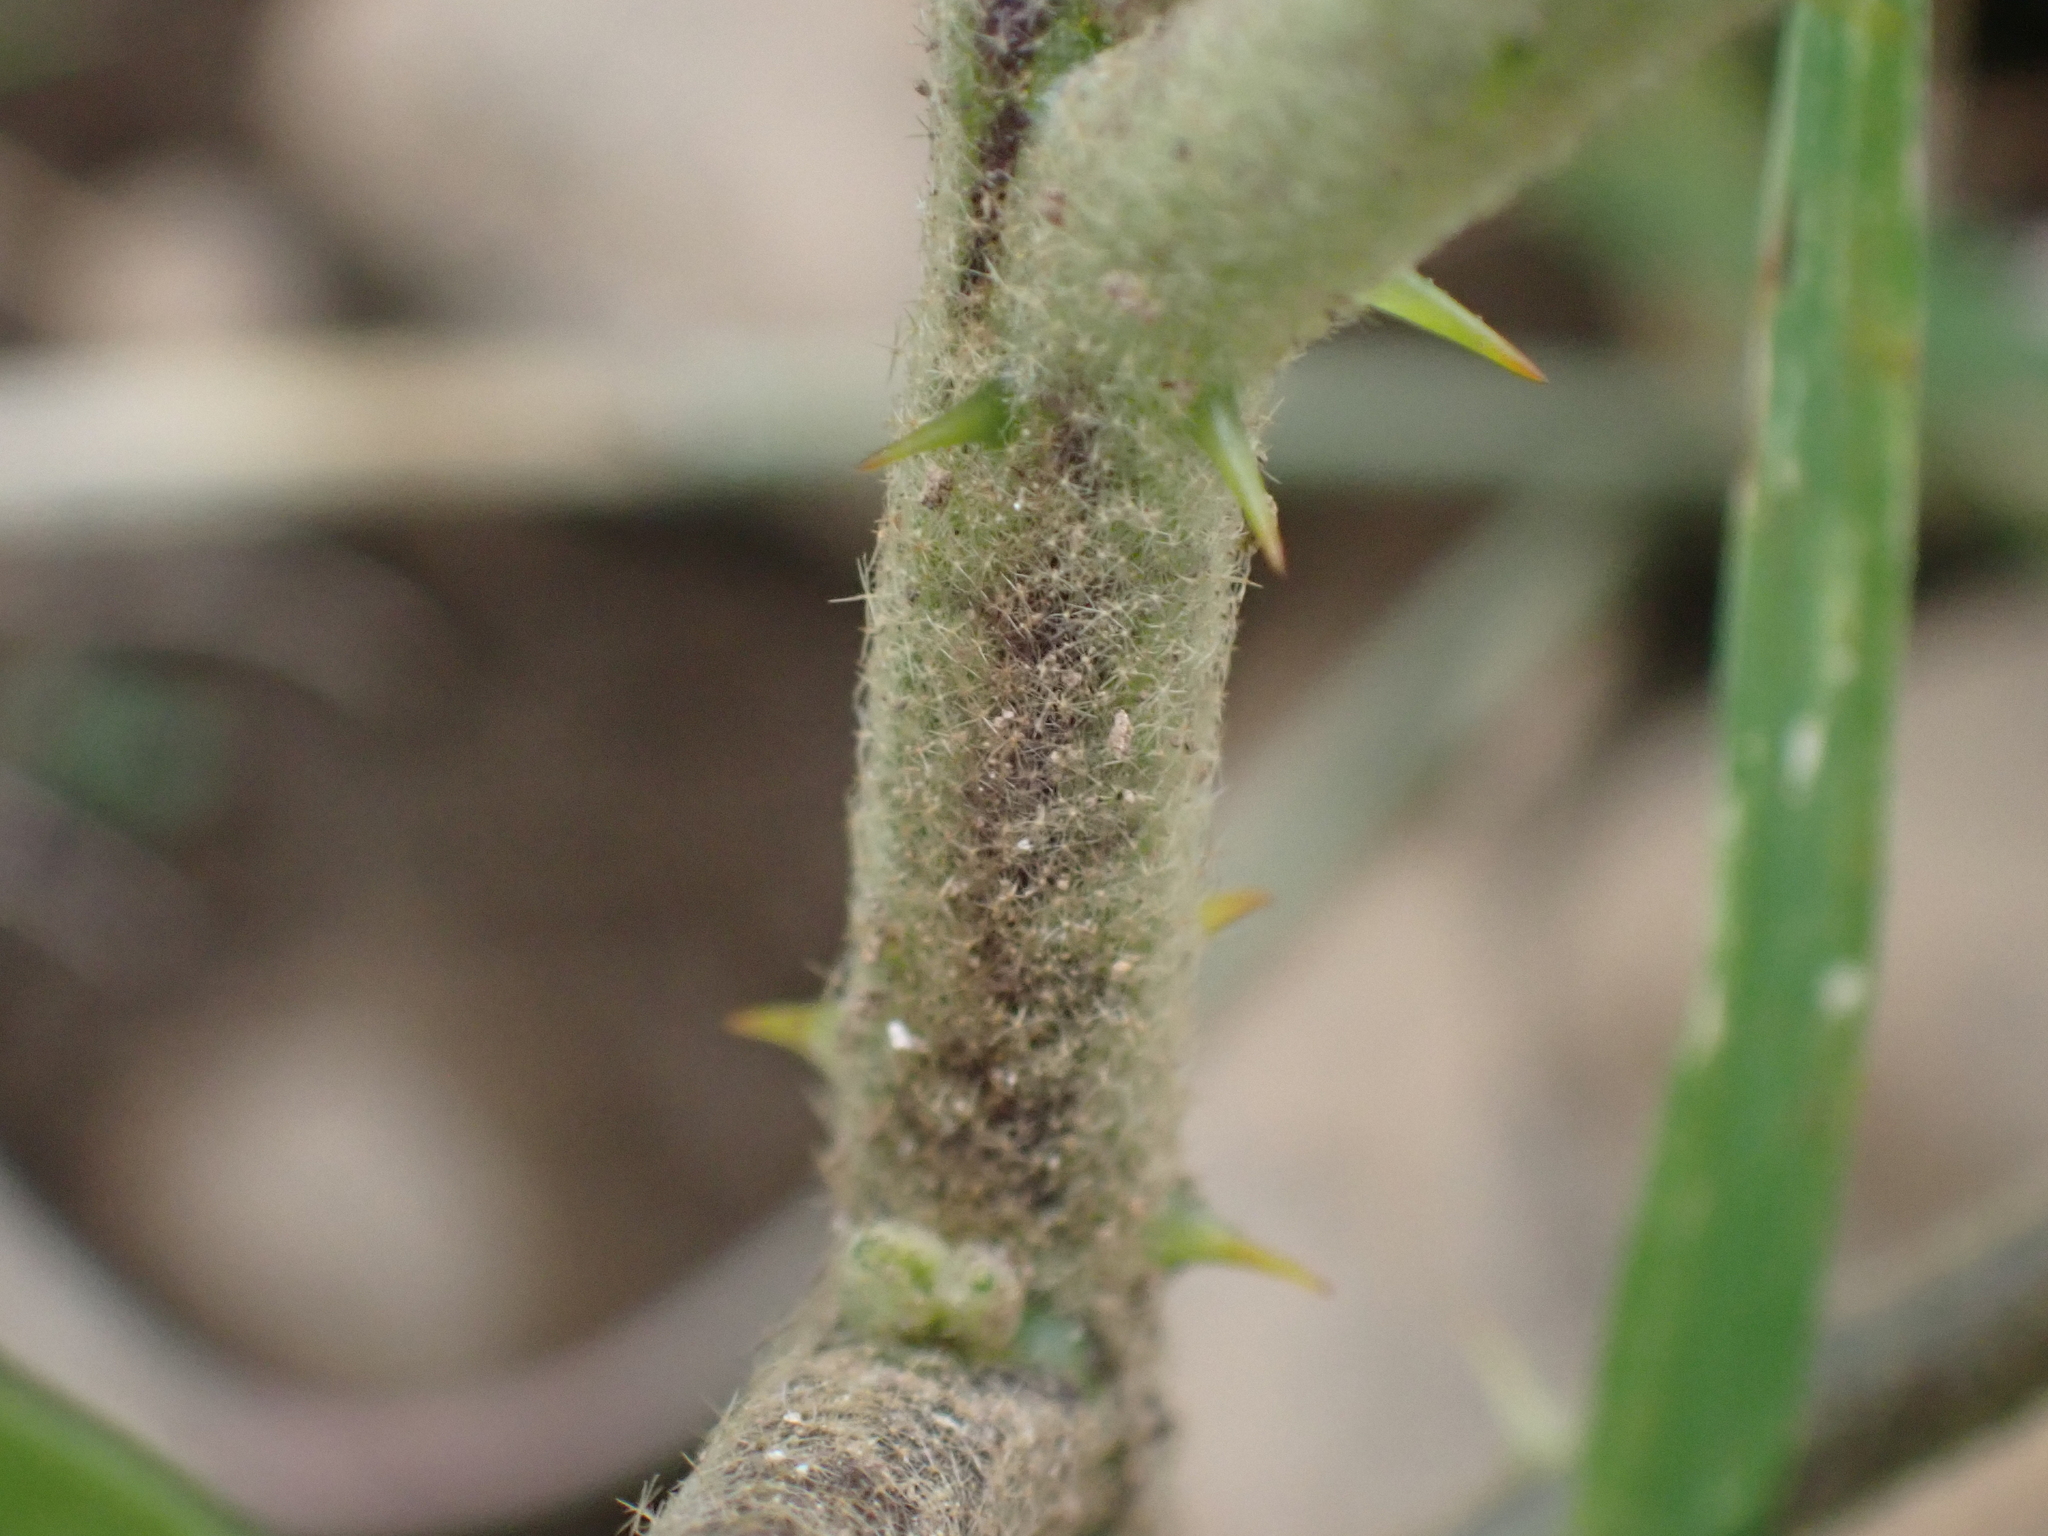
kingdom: Plantae
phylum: Tracheophyta
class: Magnoliopsida
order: Solanales
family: Solanaceae
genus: Solanum
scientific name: Solanum torvum
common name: Turkey berry
